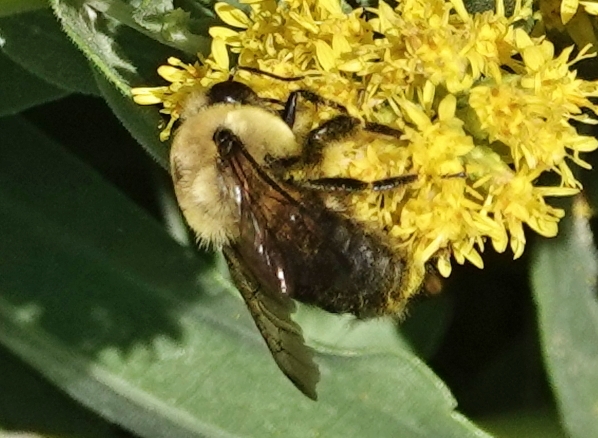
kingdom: Animalia
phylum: Arthropoda
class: Insecta
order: Hymenoptera
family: Apidae
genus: Bombus
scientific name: Bombus griseocollis
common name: Brown-belted bumble bee
